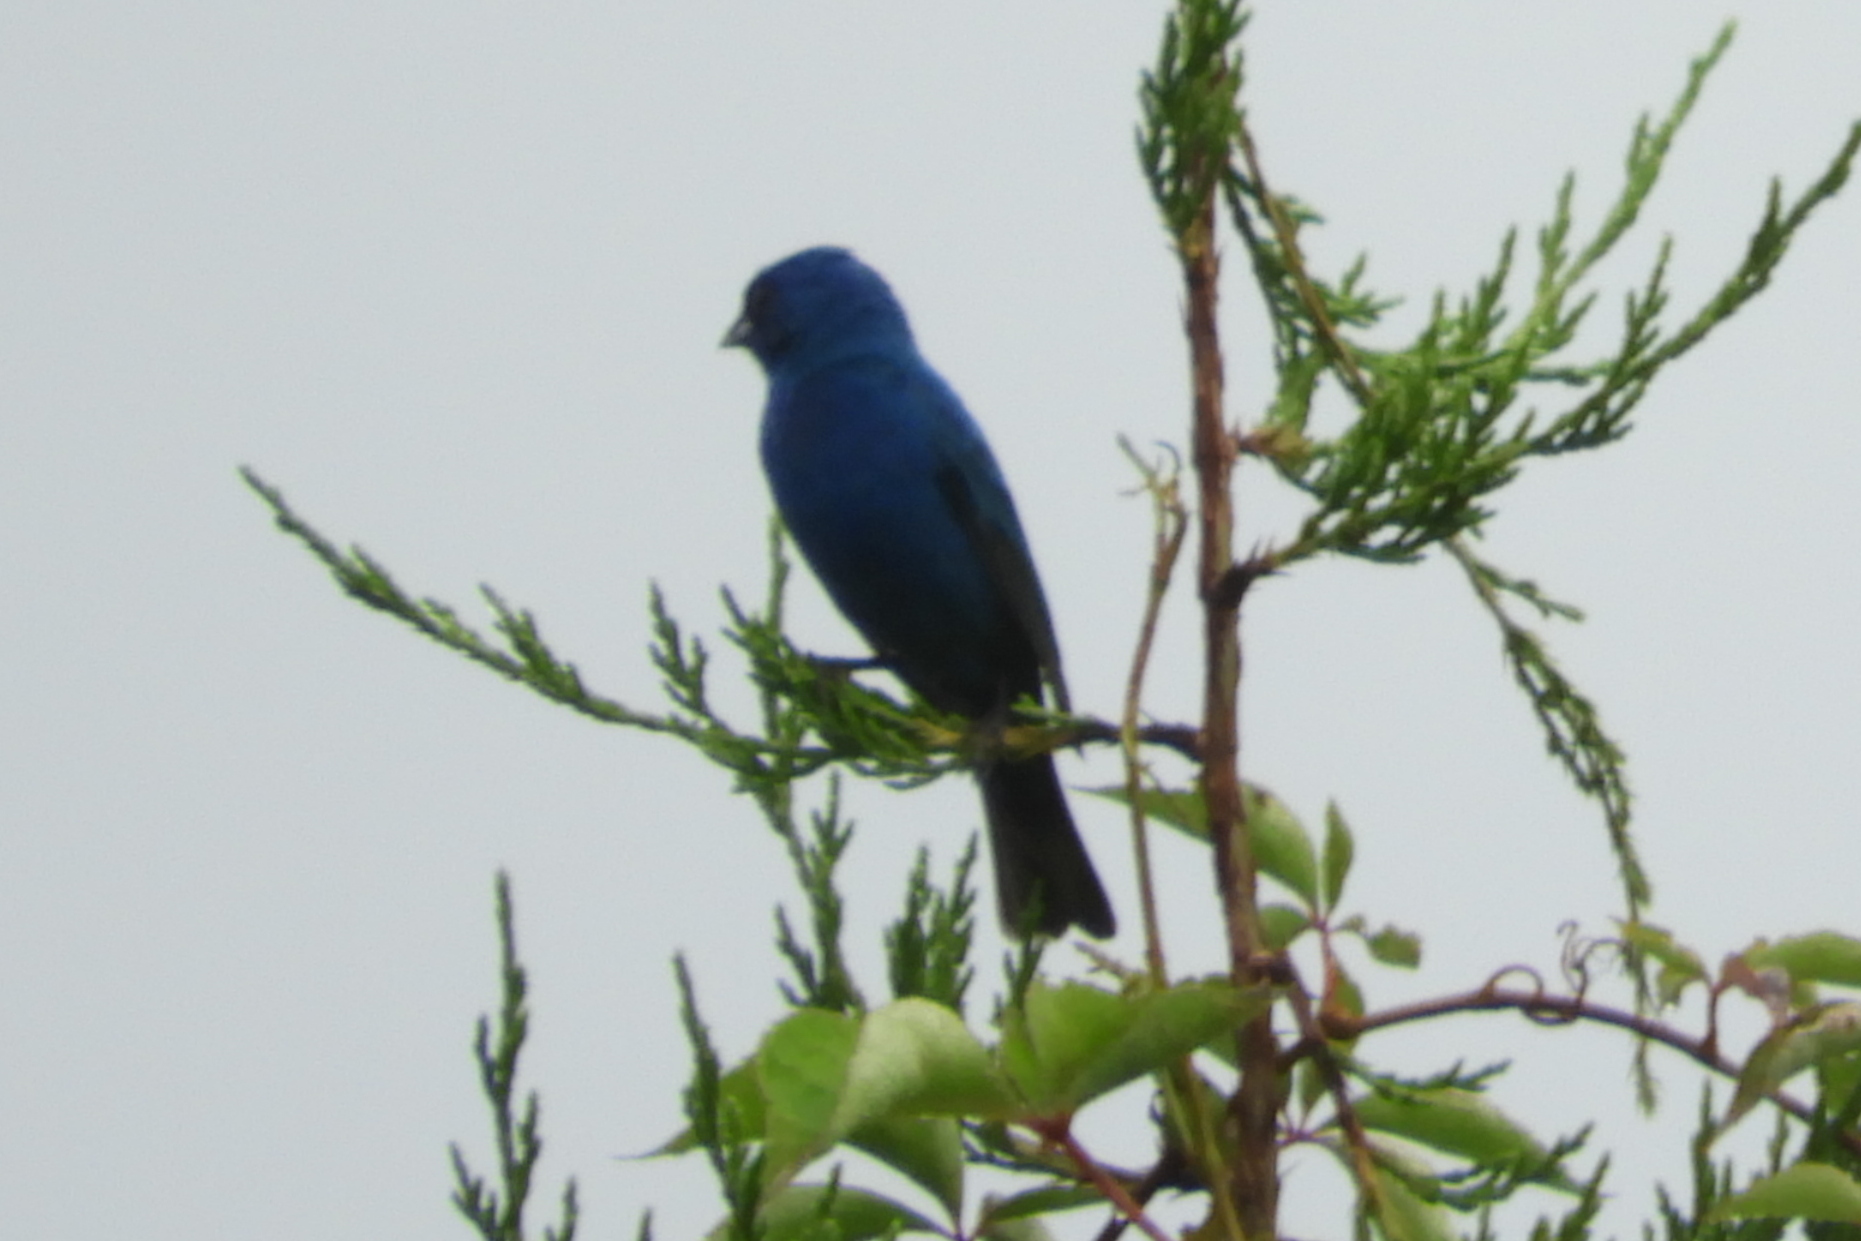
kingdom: Animalia
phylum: Chordata
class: Aves
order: Passeriformes
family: Cardinalidae
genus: Passerina
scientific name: Passerina cyanea
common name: Indigo bunting
